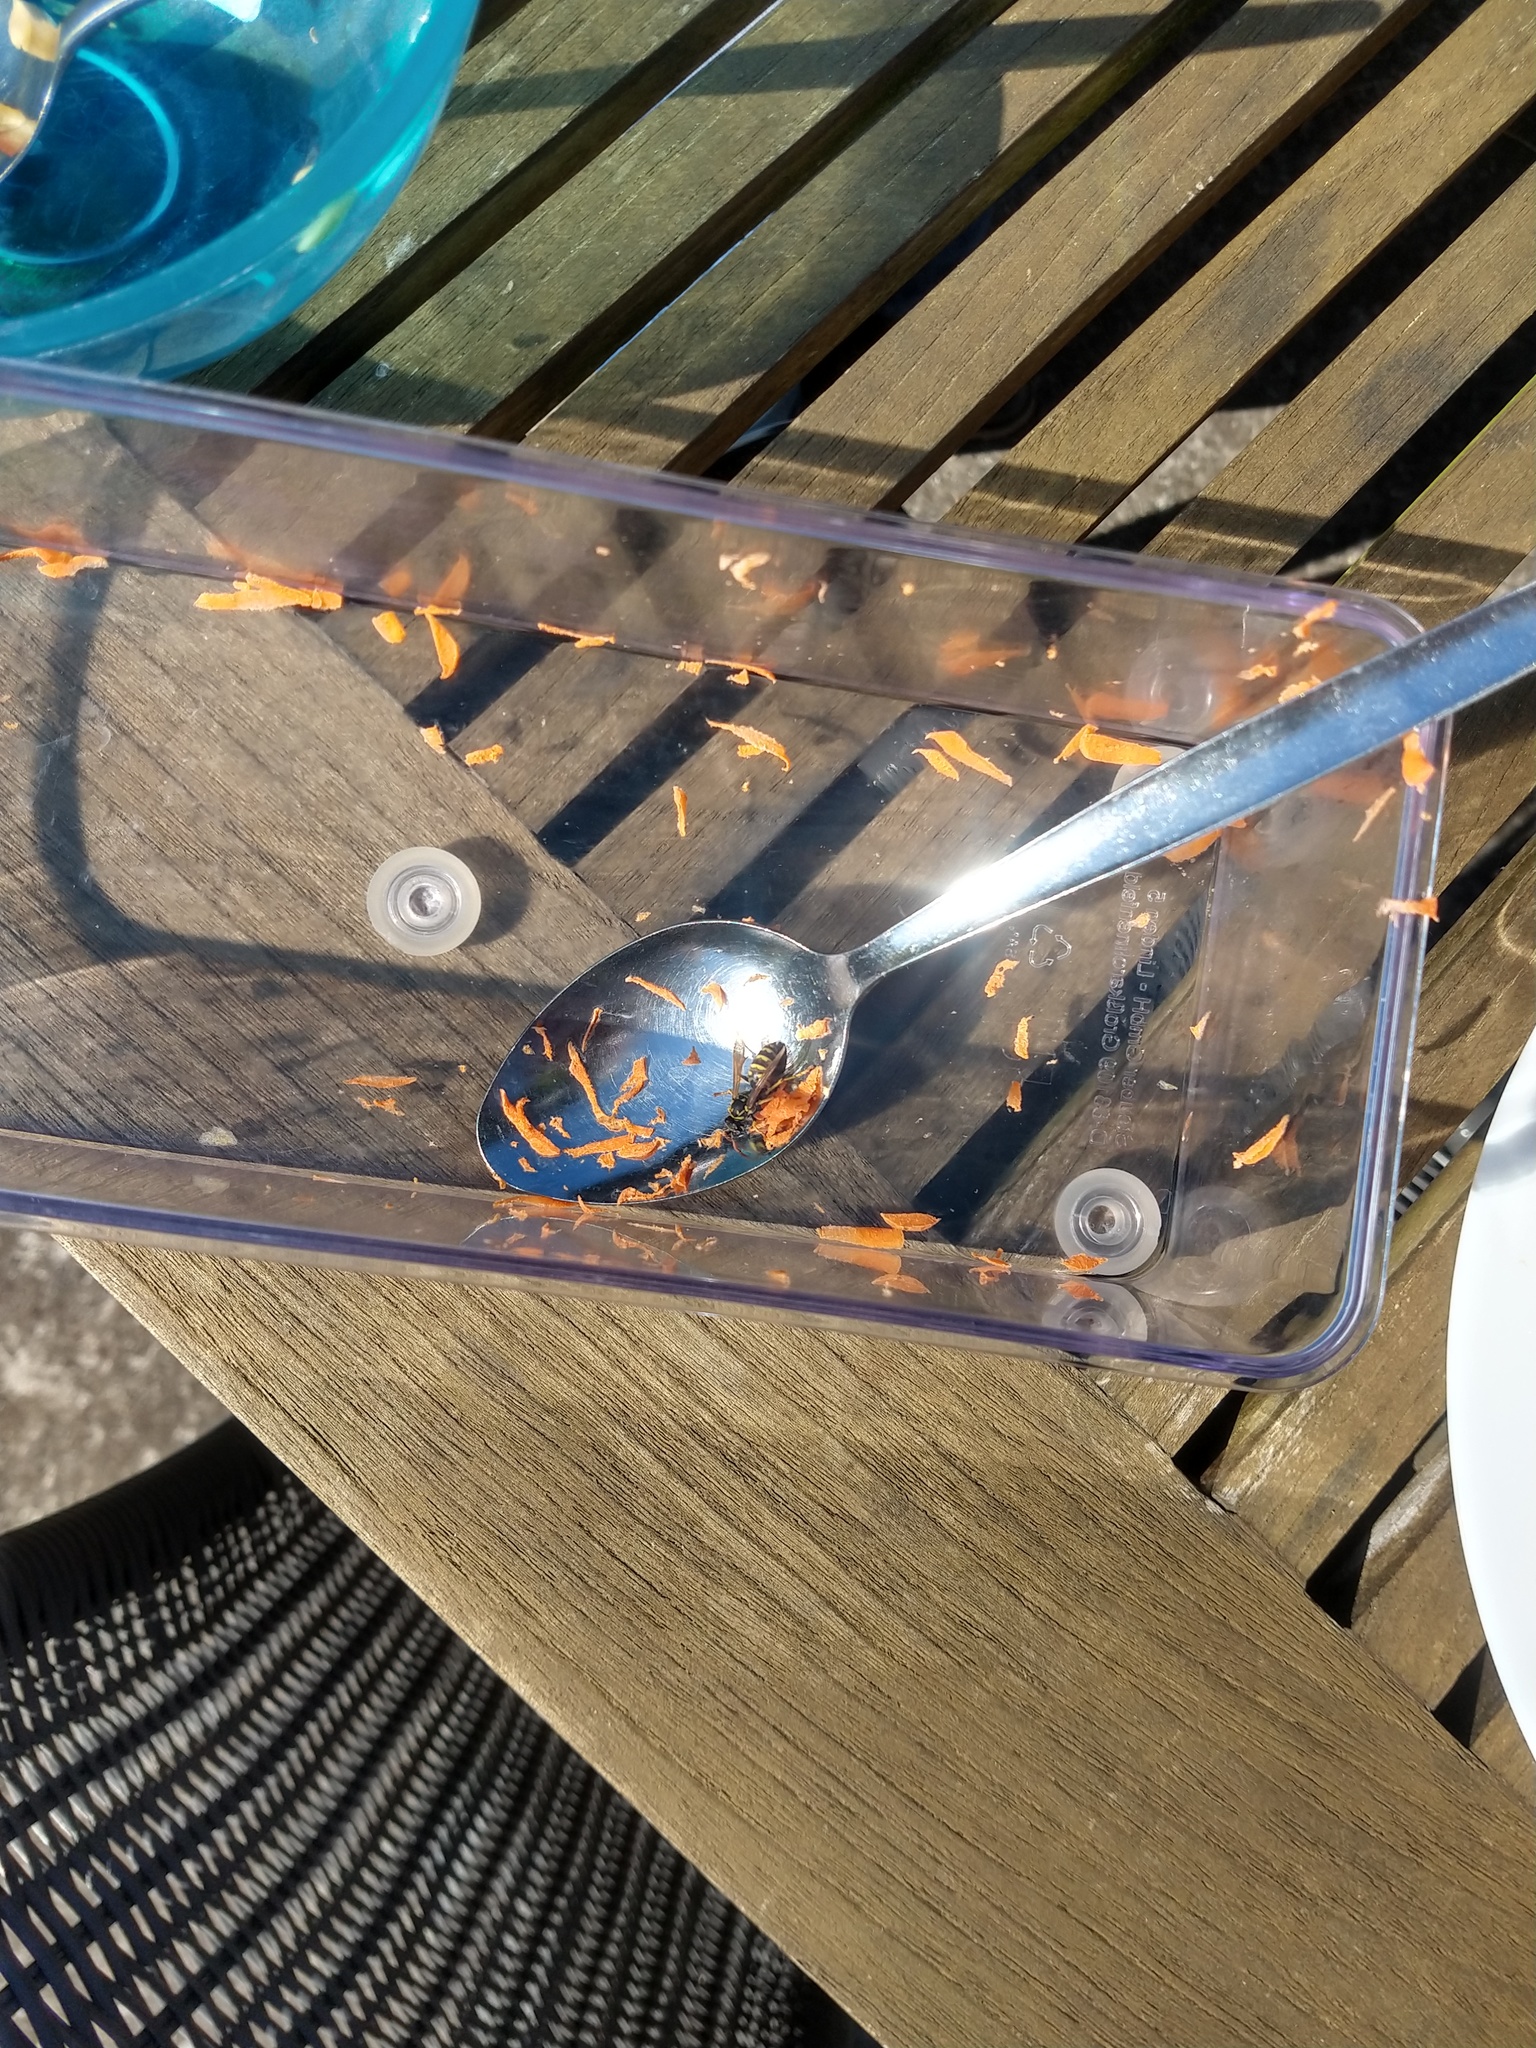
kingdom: Animalia
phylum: Arthropoda
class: Insecta
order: Hymenoptera
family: Eumenidae
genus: Polistes
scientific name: Polistes dominula
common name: Paper wasp
